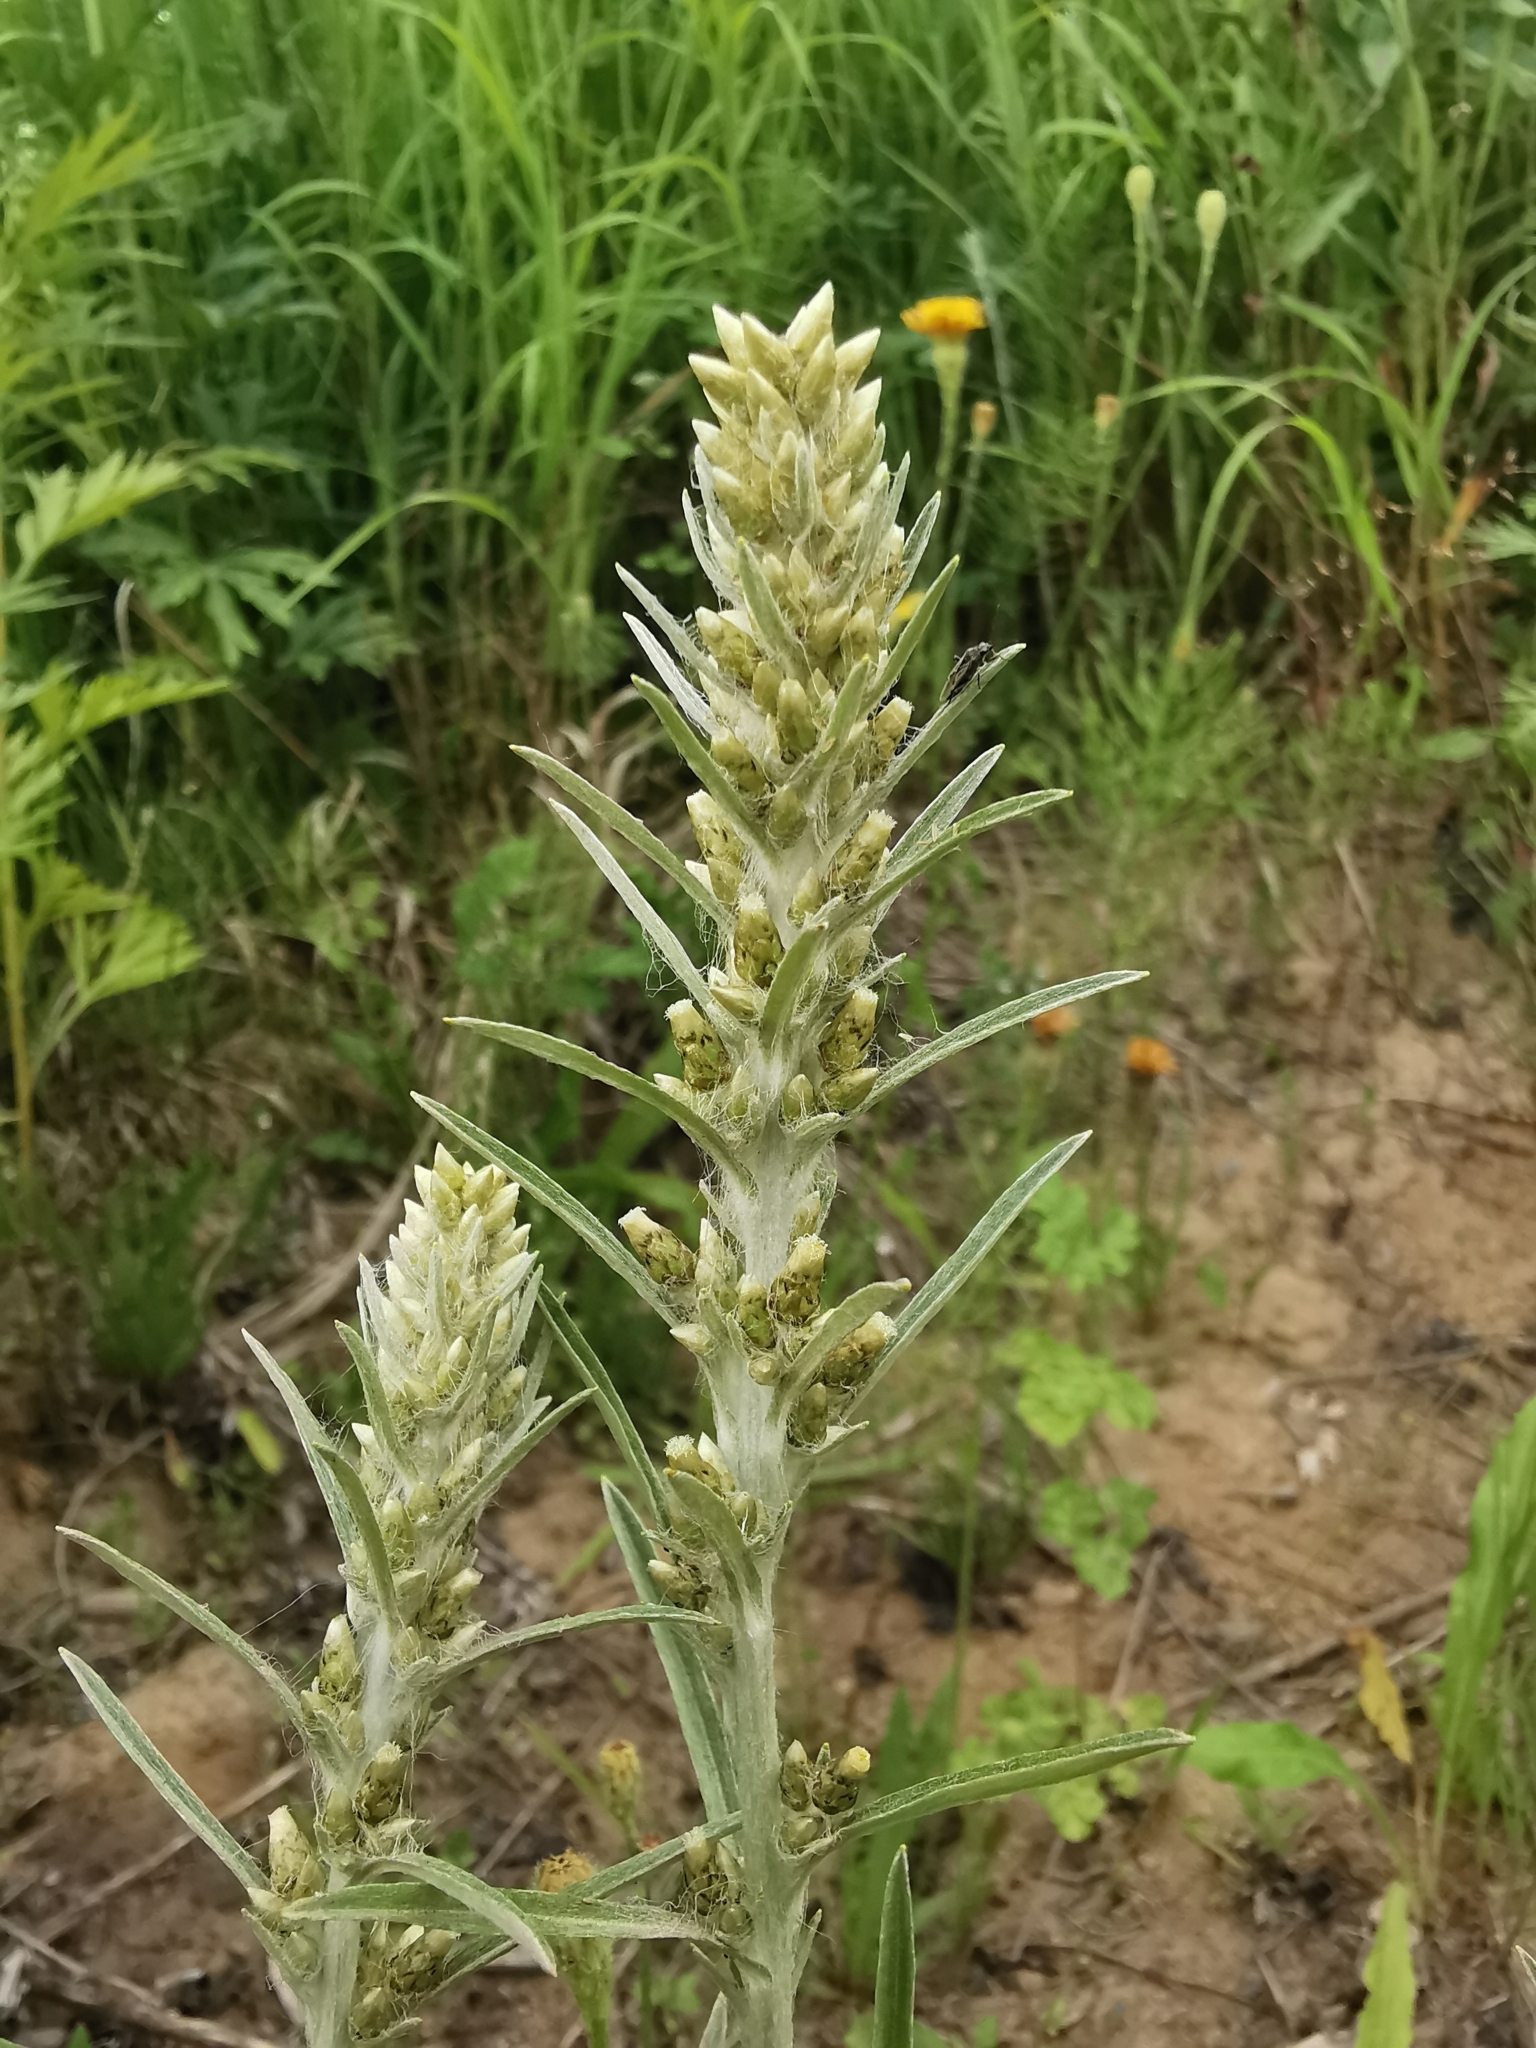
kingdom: Plantae
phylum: Tracheophyta
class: Magnoliopsida
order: Asterales
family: Asteraceae
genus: Omalotheca
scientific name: Omalotheca sylvatica
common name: Heath cudweed
